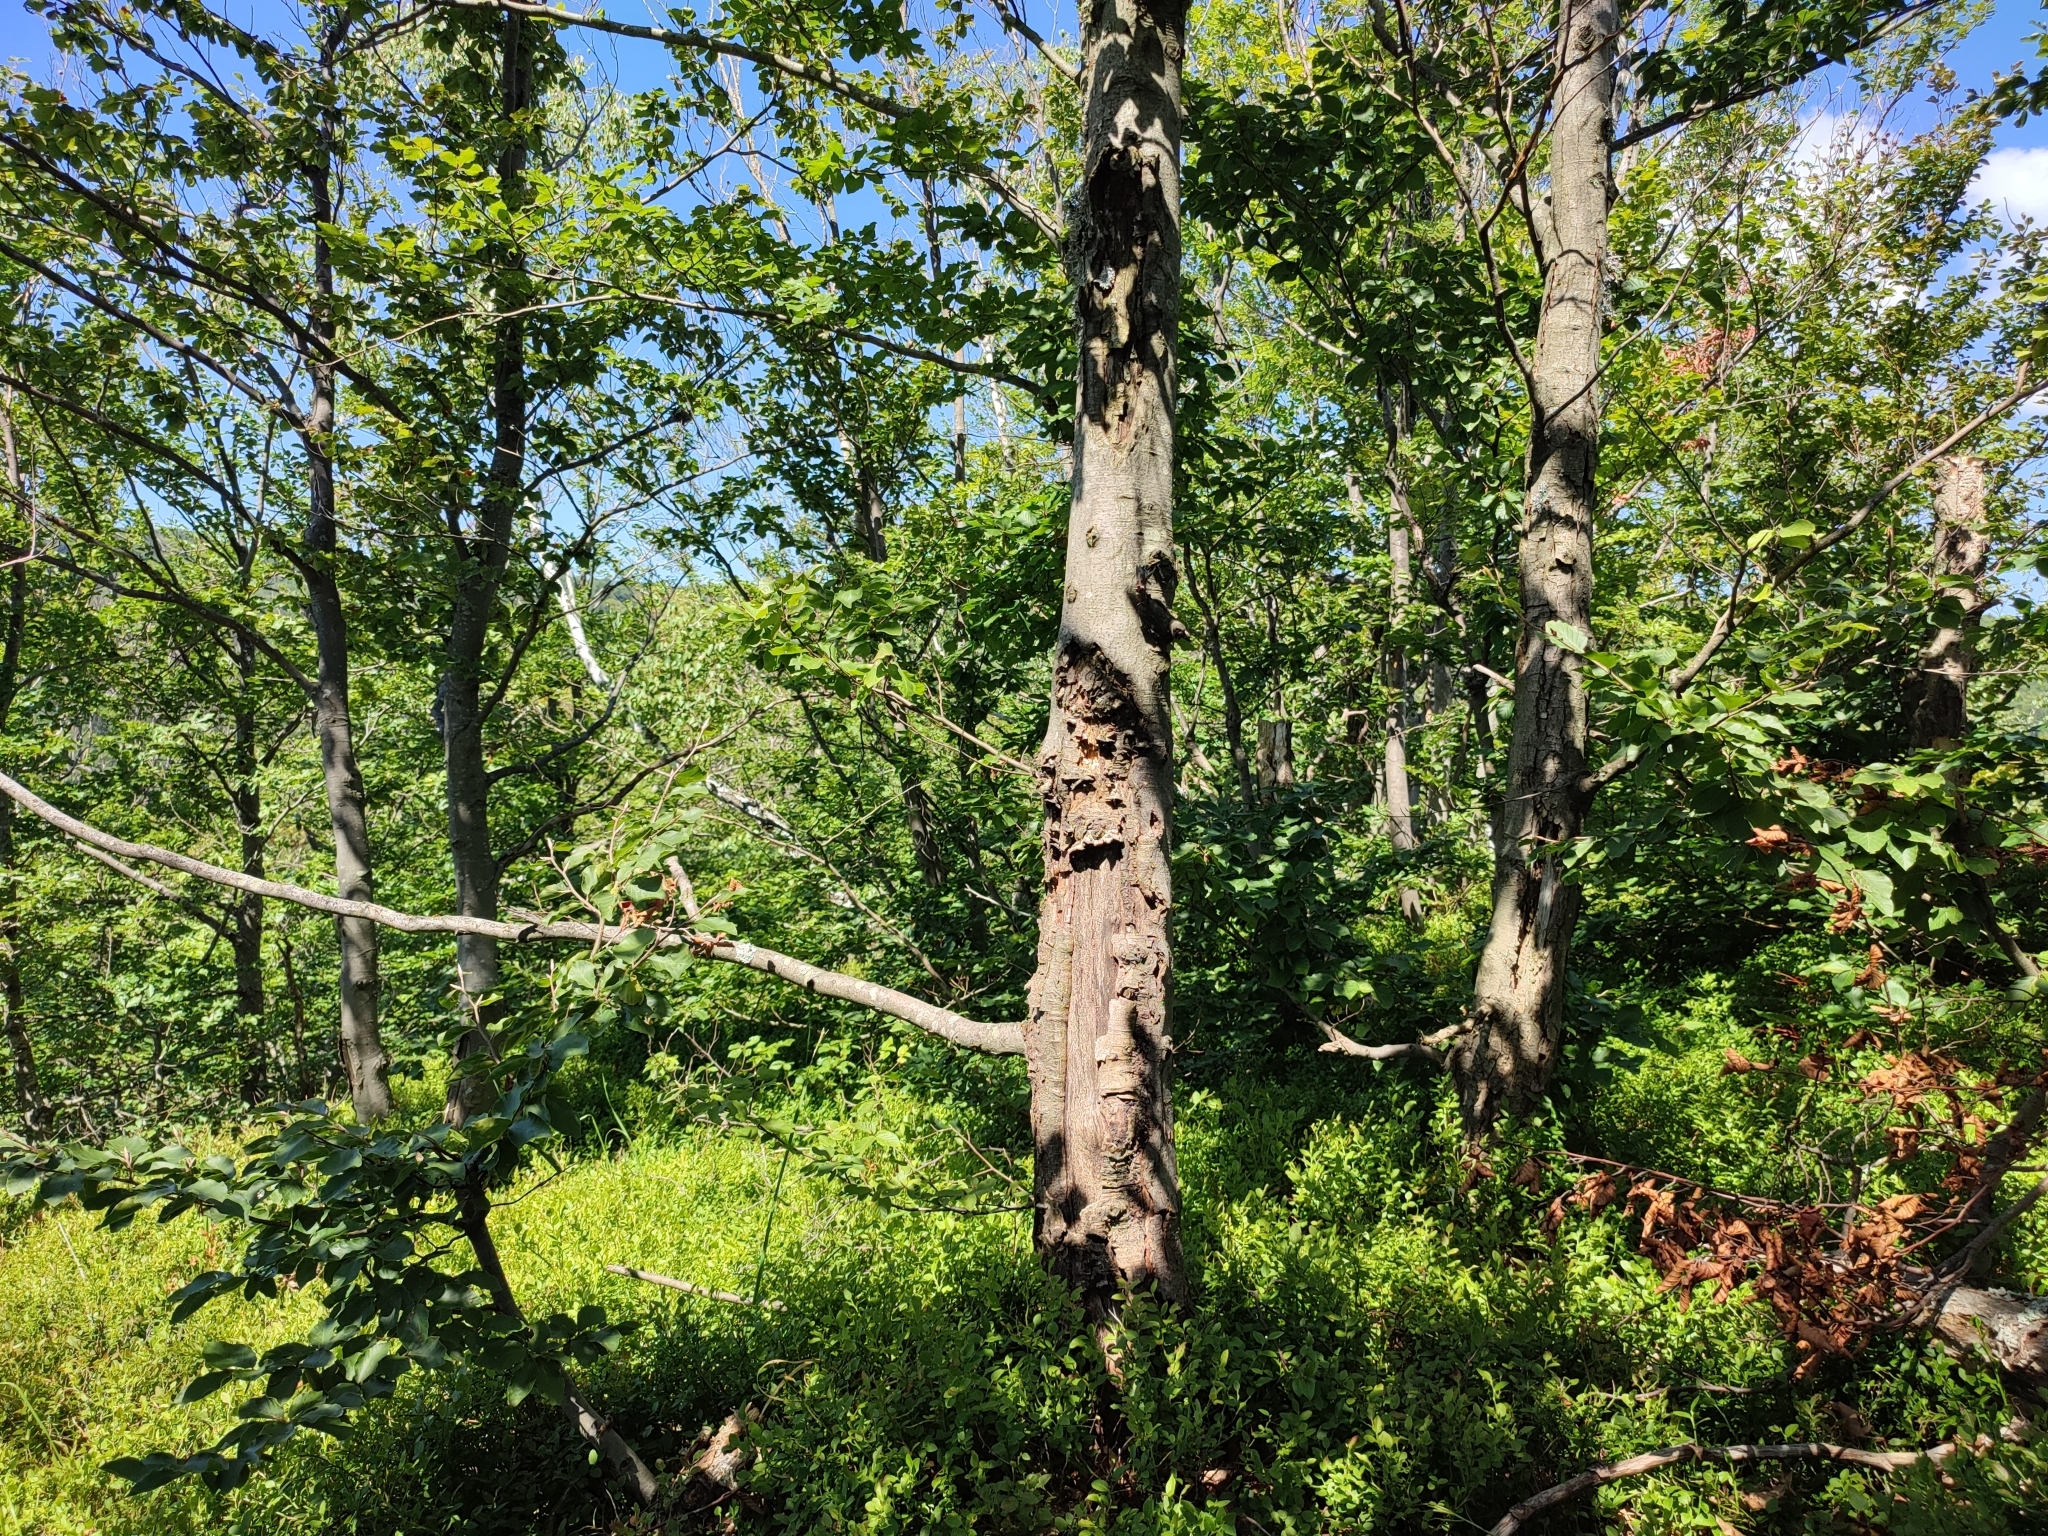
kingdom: Plantae
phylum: Tracheophyta
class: Magnoliopsida
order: Fagales
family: Fagaceae
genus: Fagus
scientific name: Fagus sylvatica
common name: Beech
